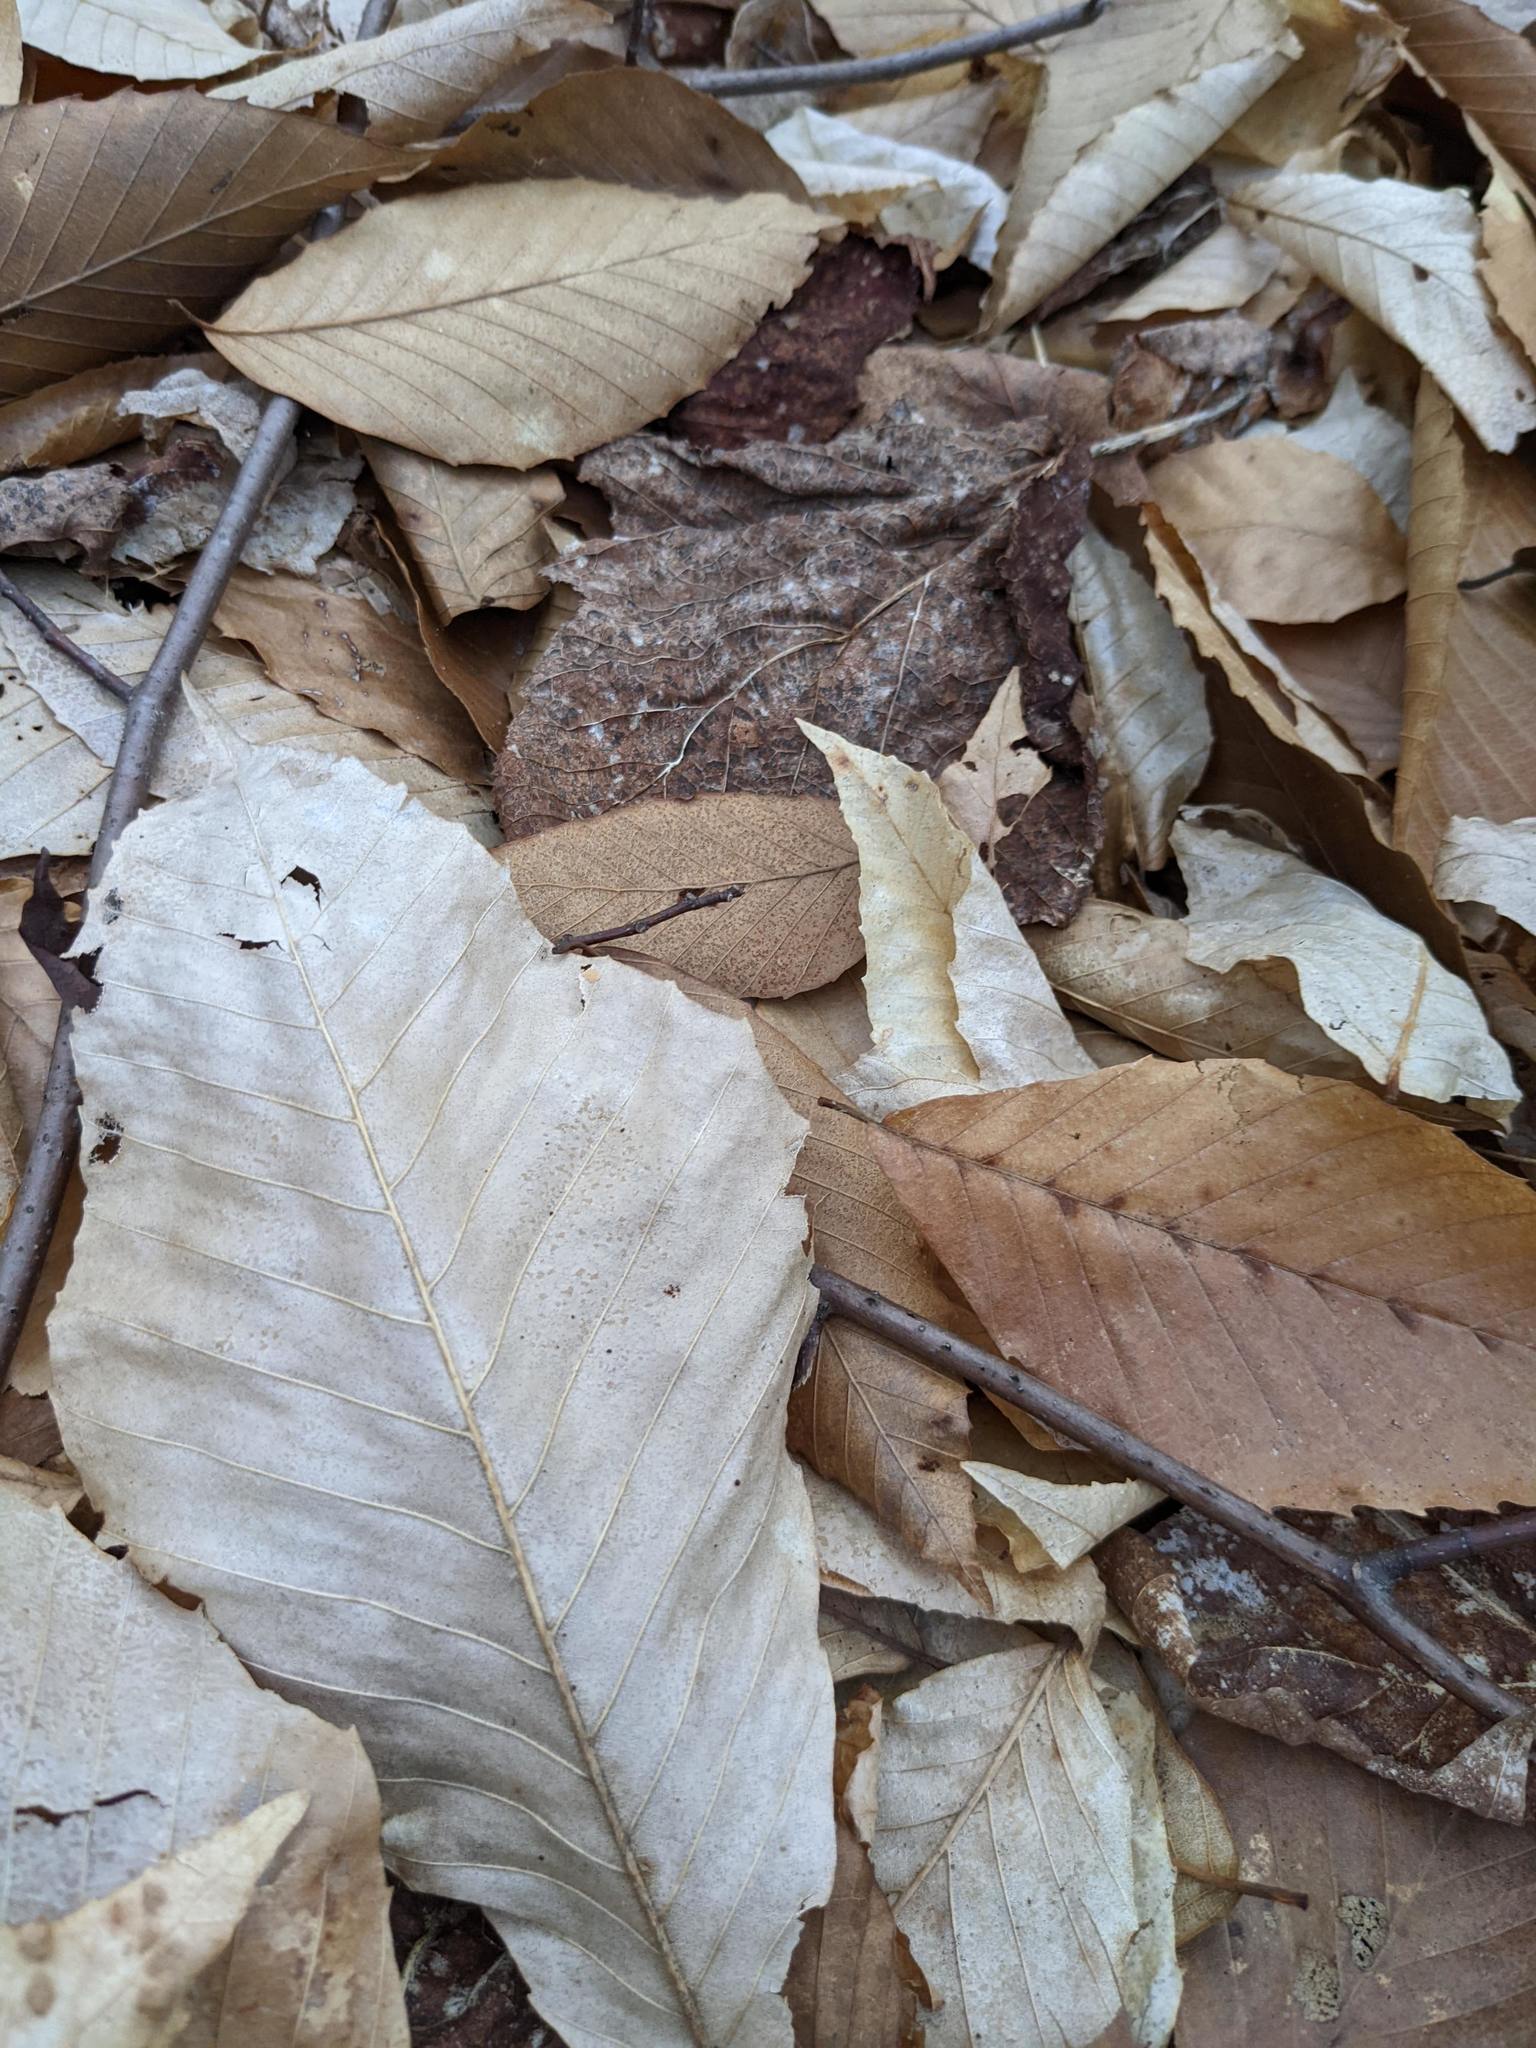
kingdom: Plantae
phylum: Tracheophyta
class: Magnoliopsida
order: Fagales
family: Fagaceae
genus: Fagus
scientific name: Fagus grandifolia
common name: American beech
